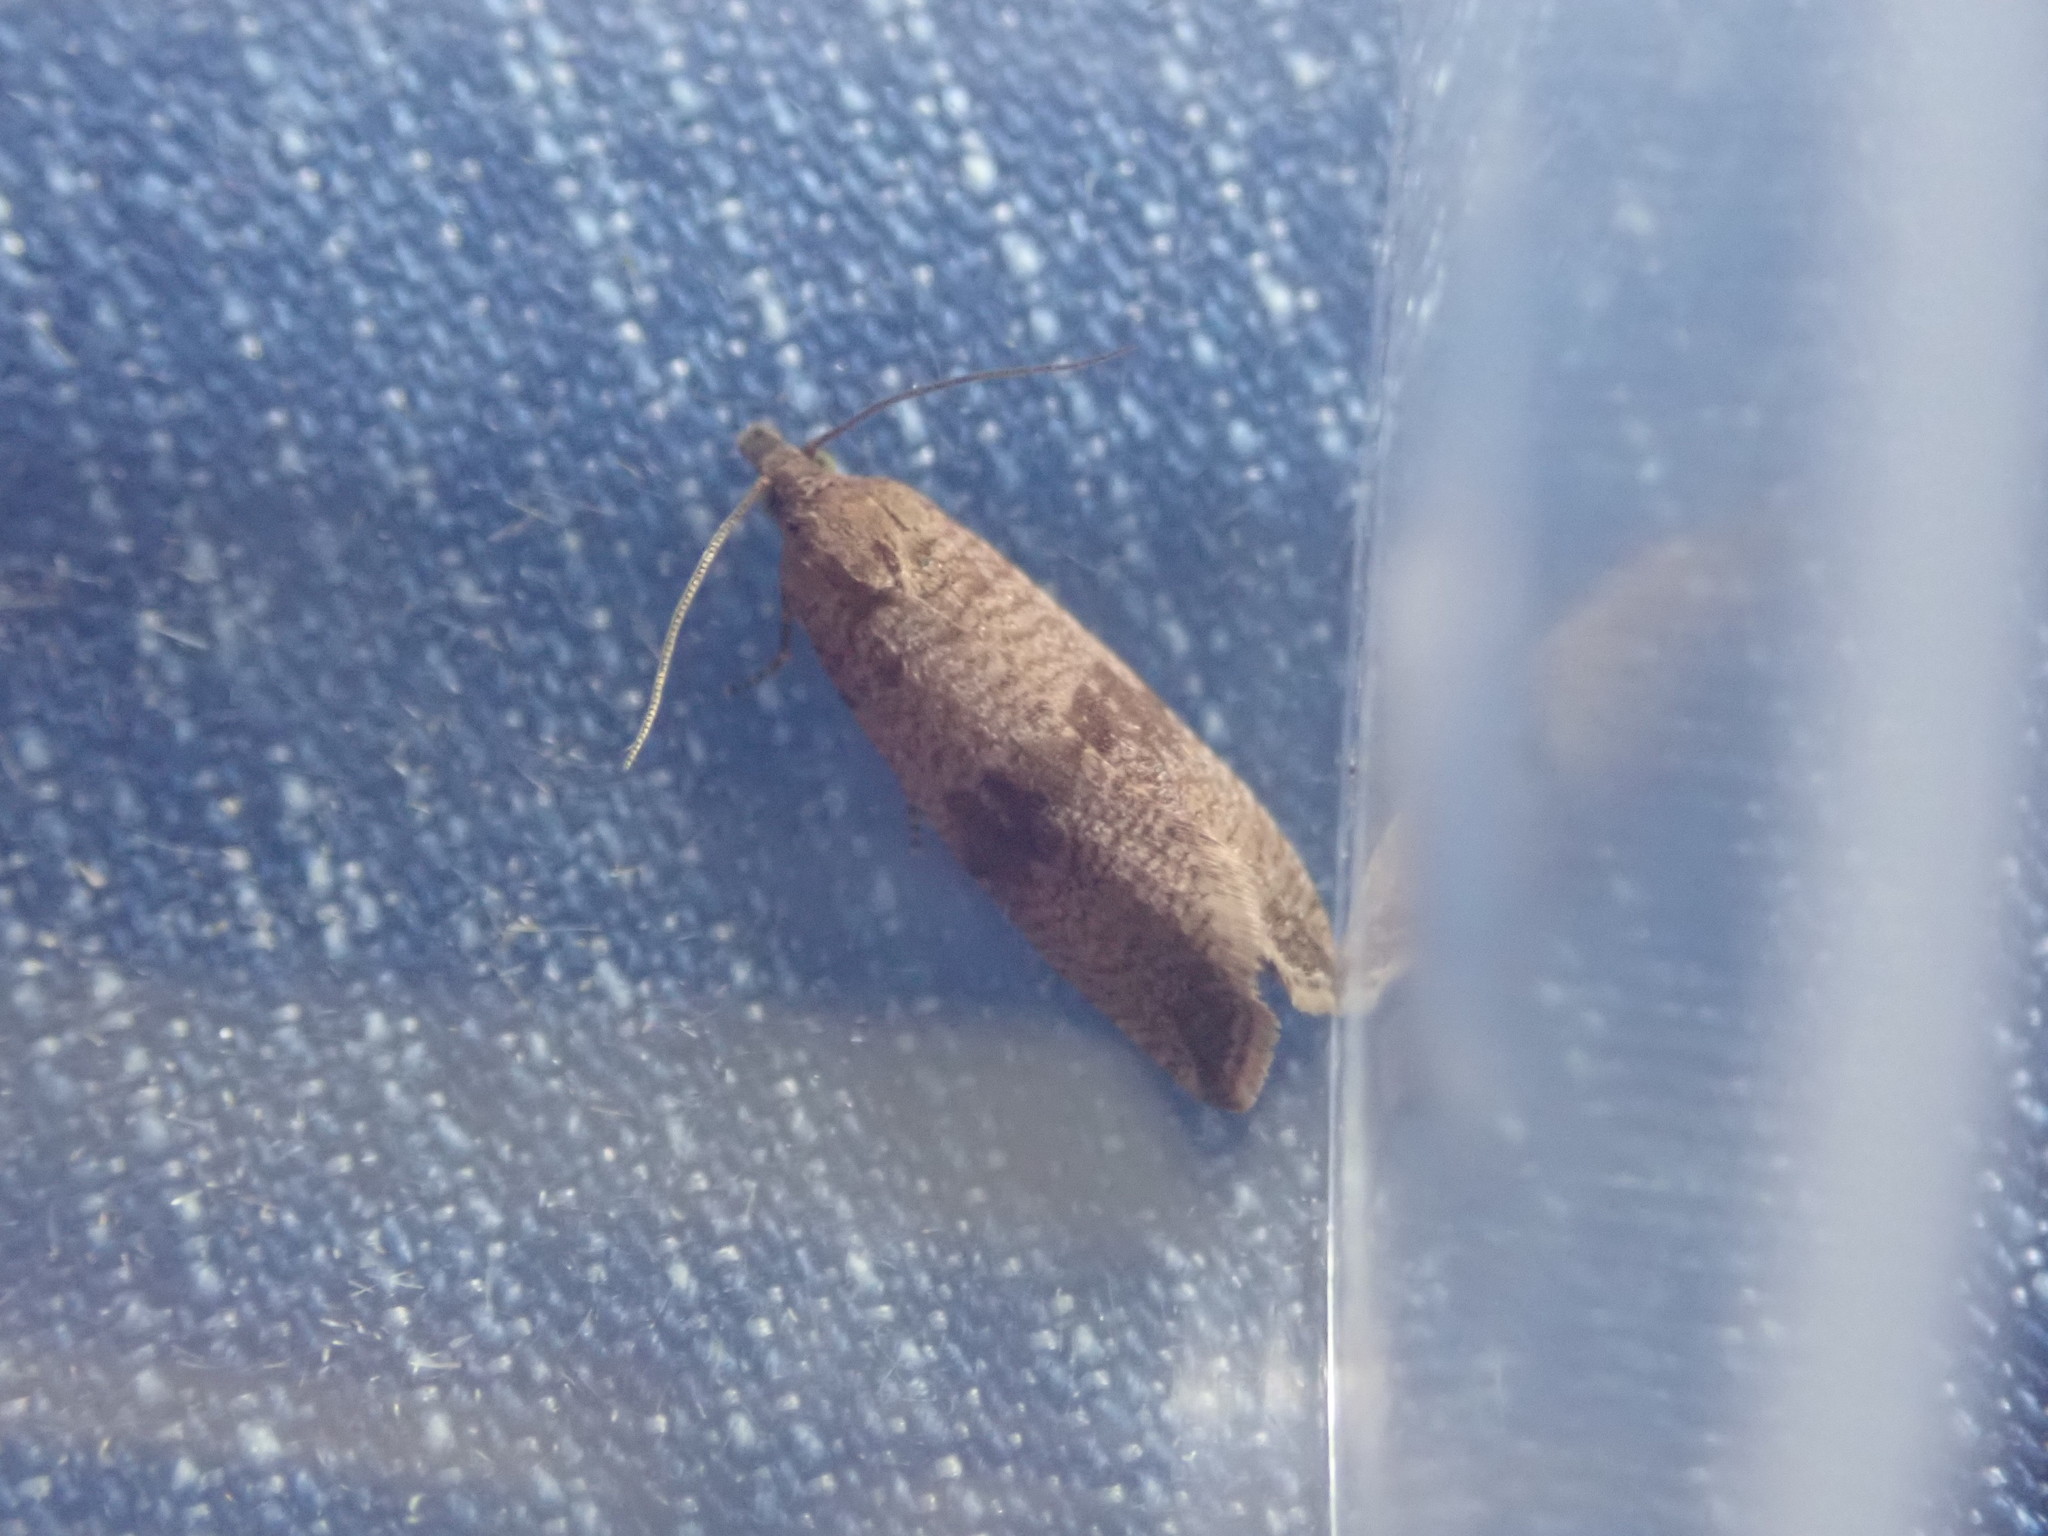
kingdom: Animalia
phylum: Arthropoda
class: Insecta
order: Lepidoptera
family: Tortricidae
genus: Celypha
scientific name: Celypha striana
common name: Barred marble
